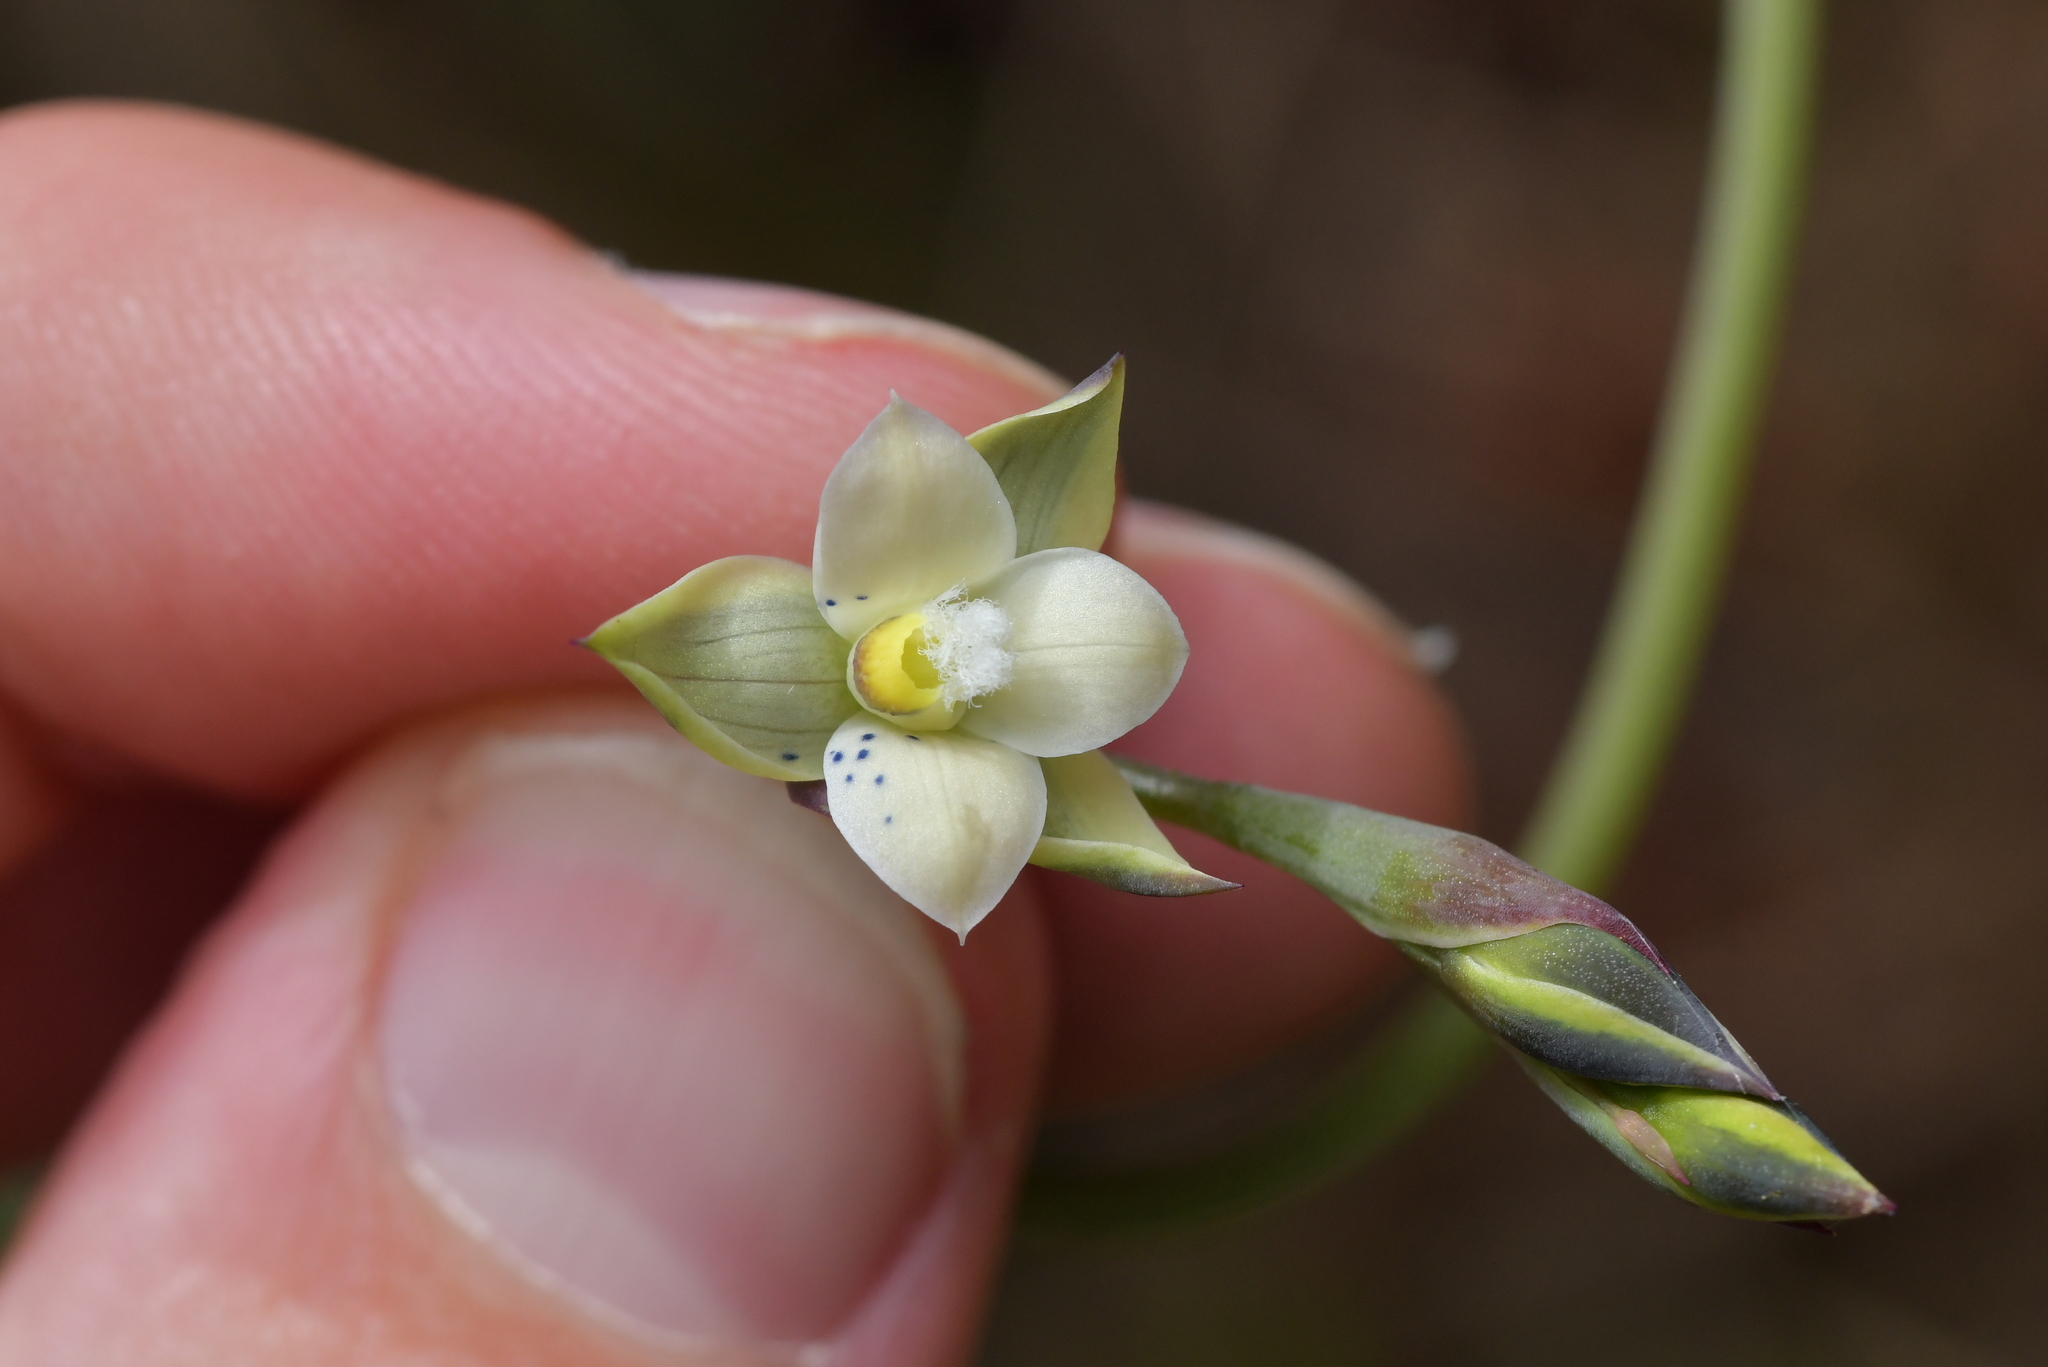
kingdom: Plantae
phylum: Tracheophyta
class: Liliopsida
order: Asparagales
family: Orchidaceae
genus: Thelymitra
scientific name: Thelymitra nervosa
